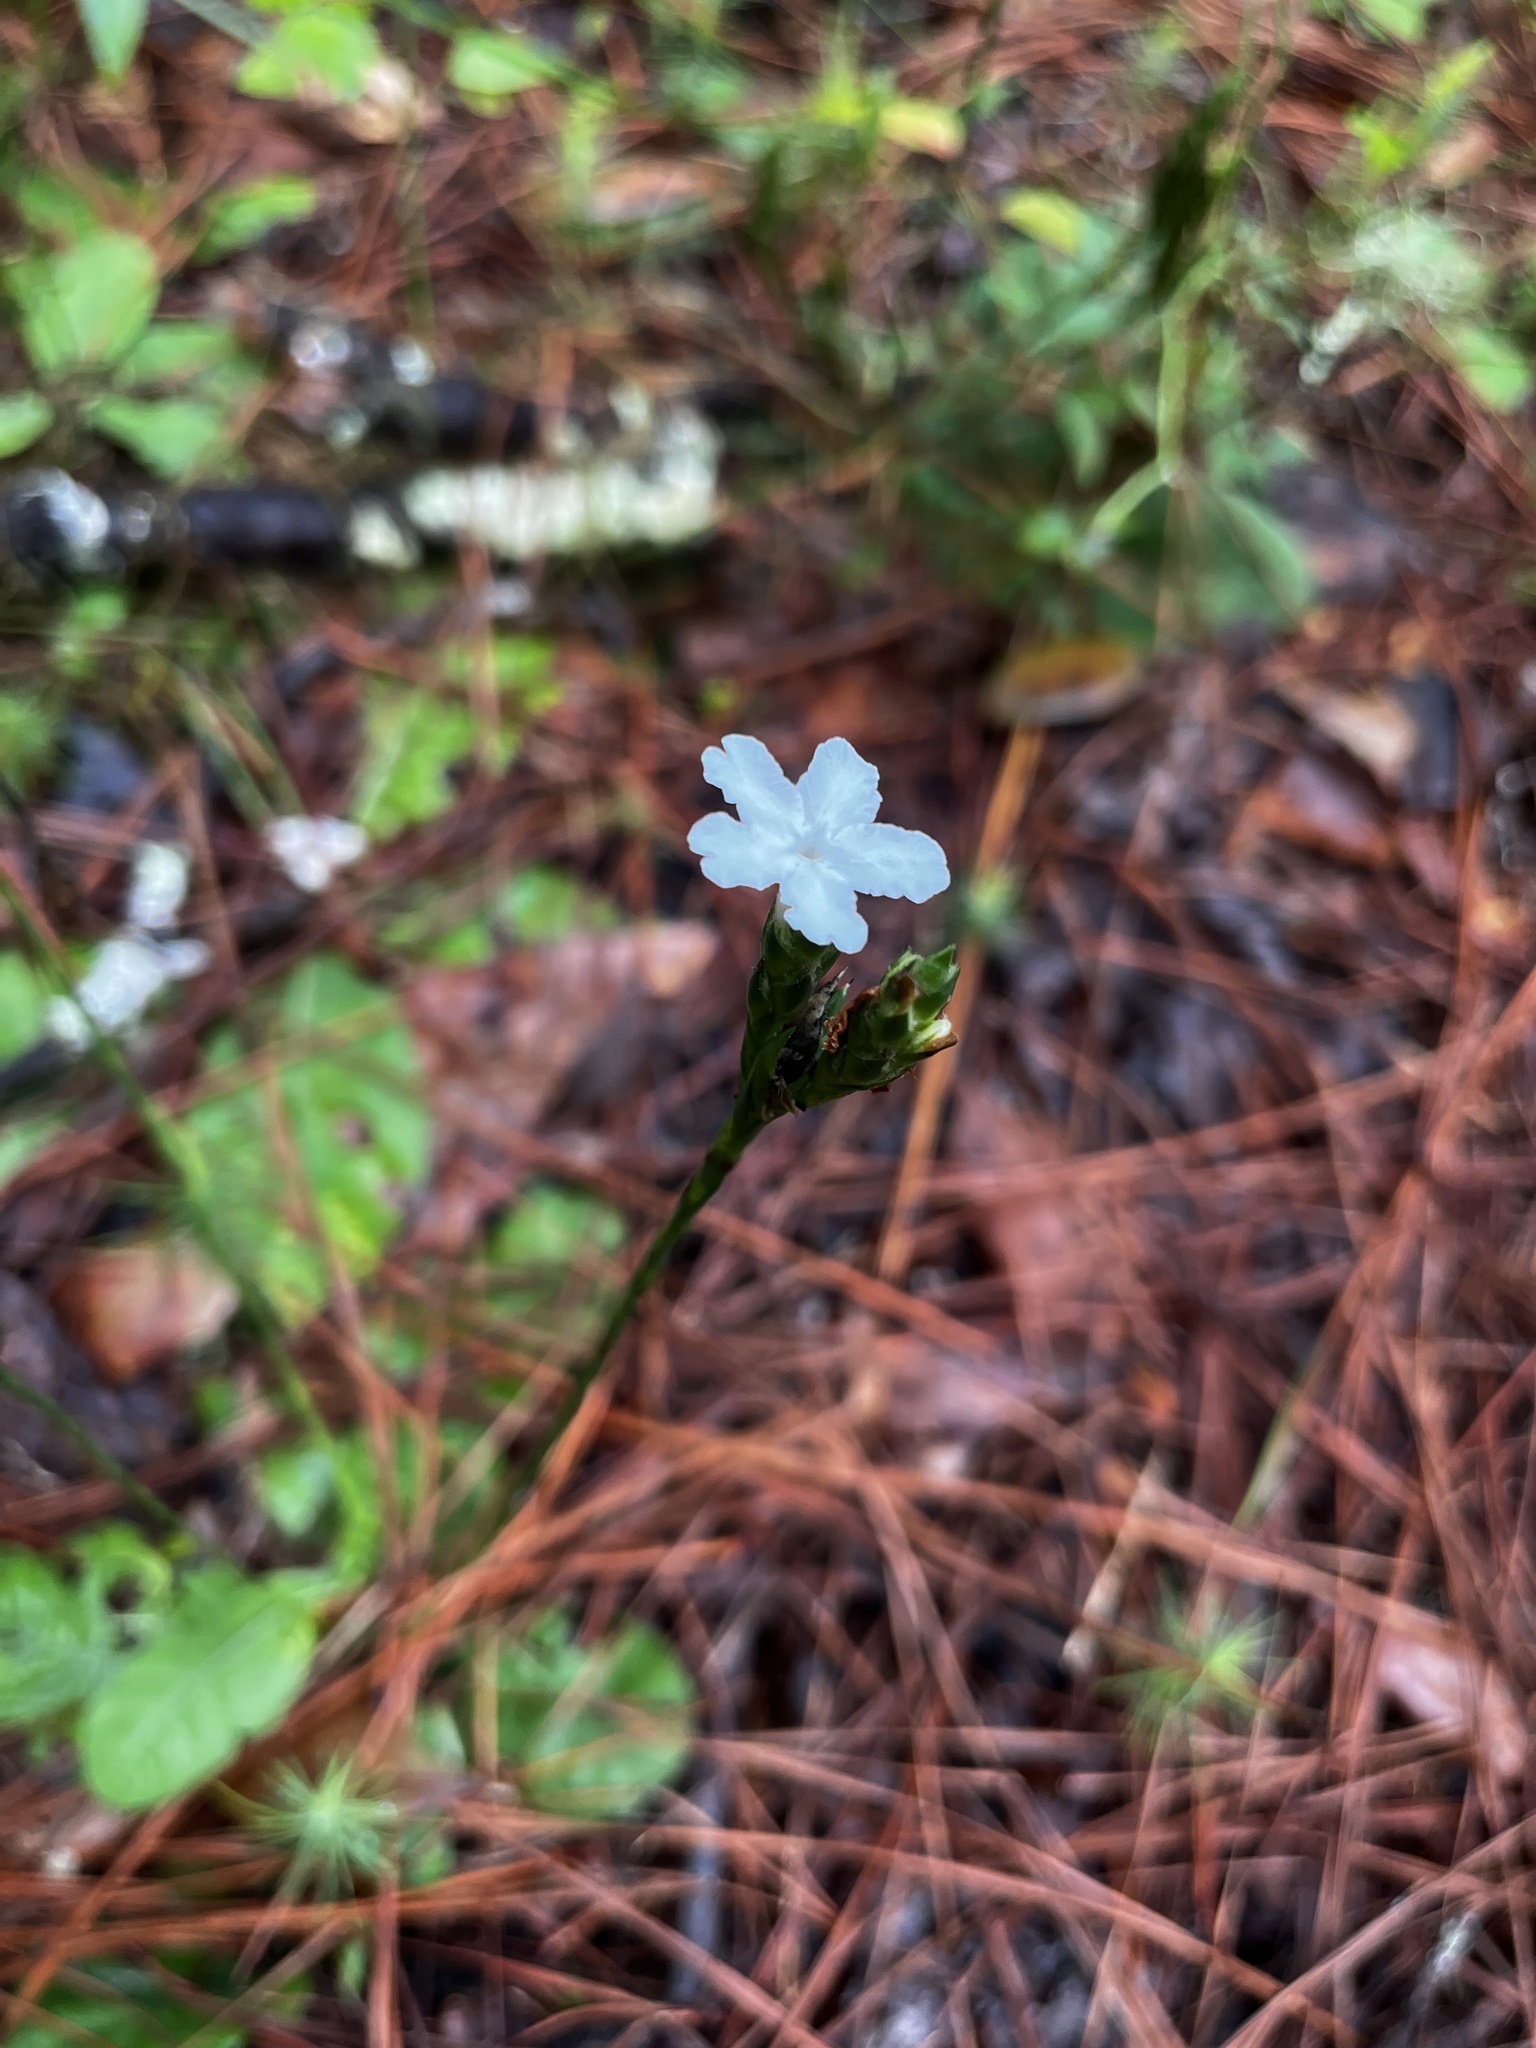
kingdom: Plantae
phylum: Tracheophyta
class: Magnoliopsida
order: Lamiales
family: Acanthaceae
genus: Elytraria
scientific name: Elytraria caroliniensis
